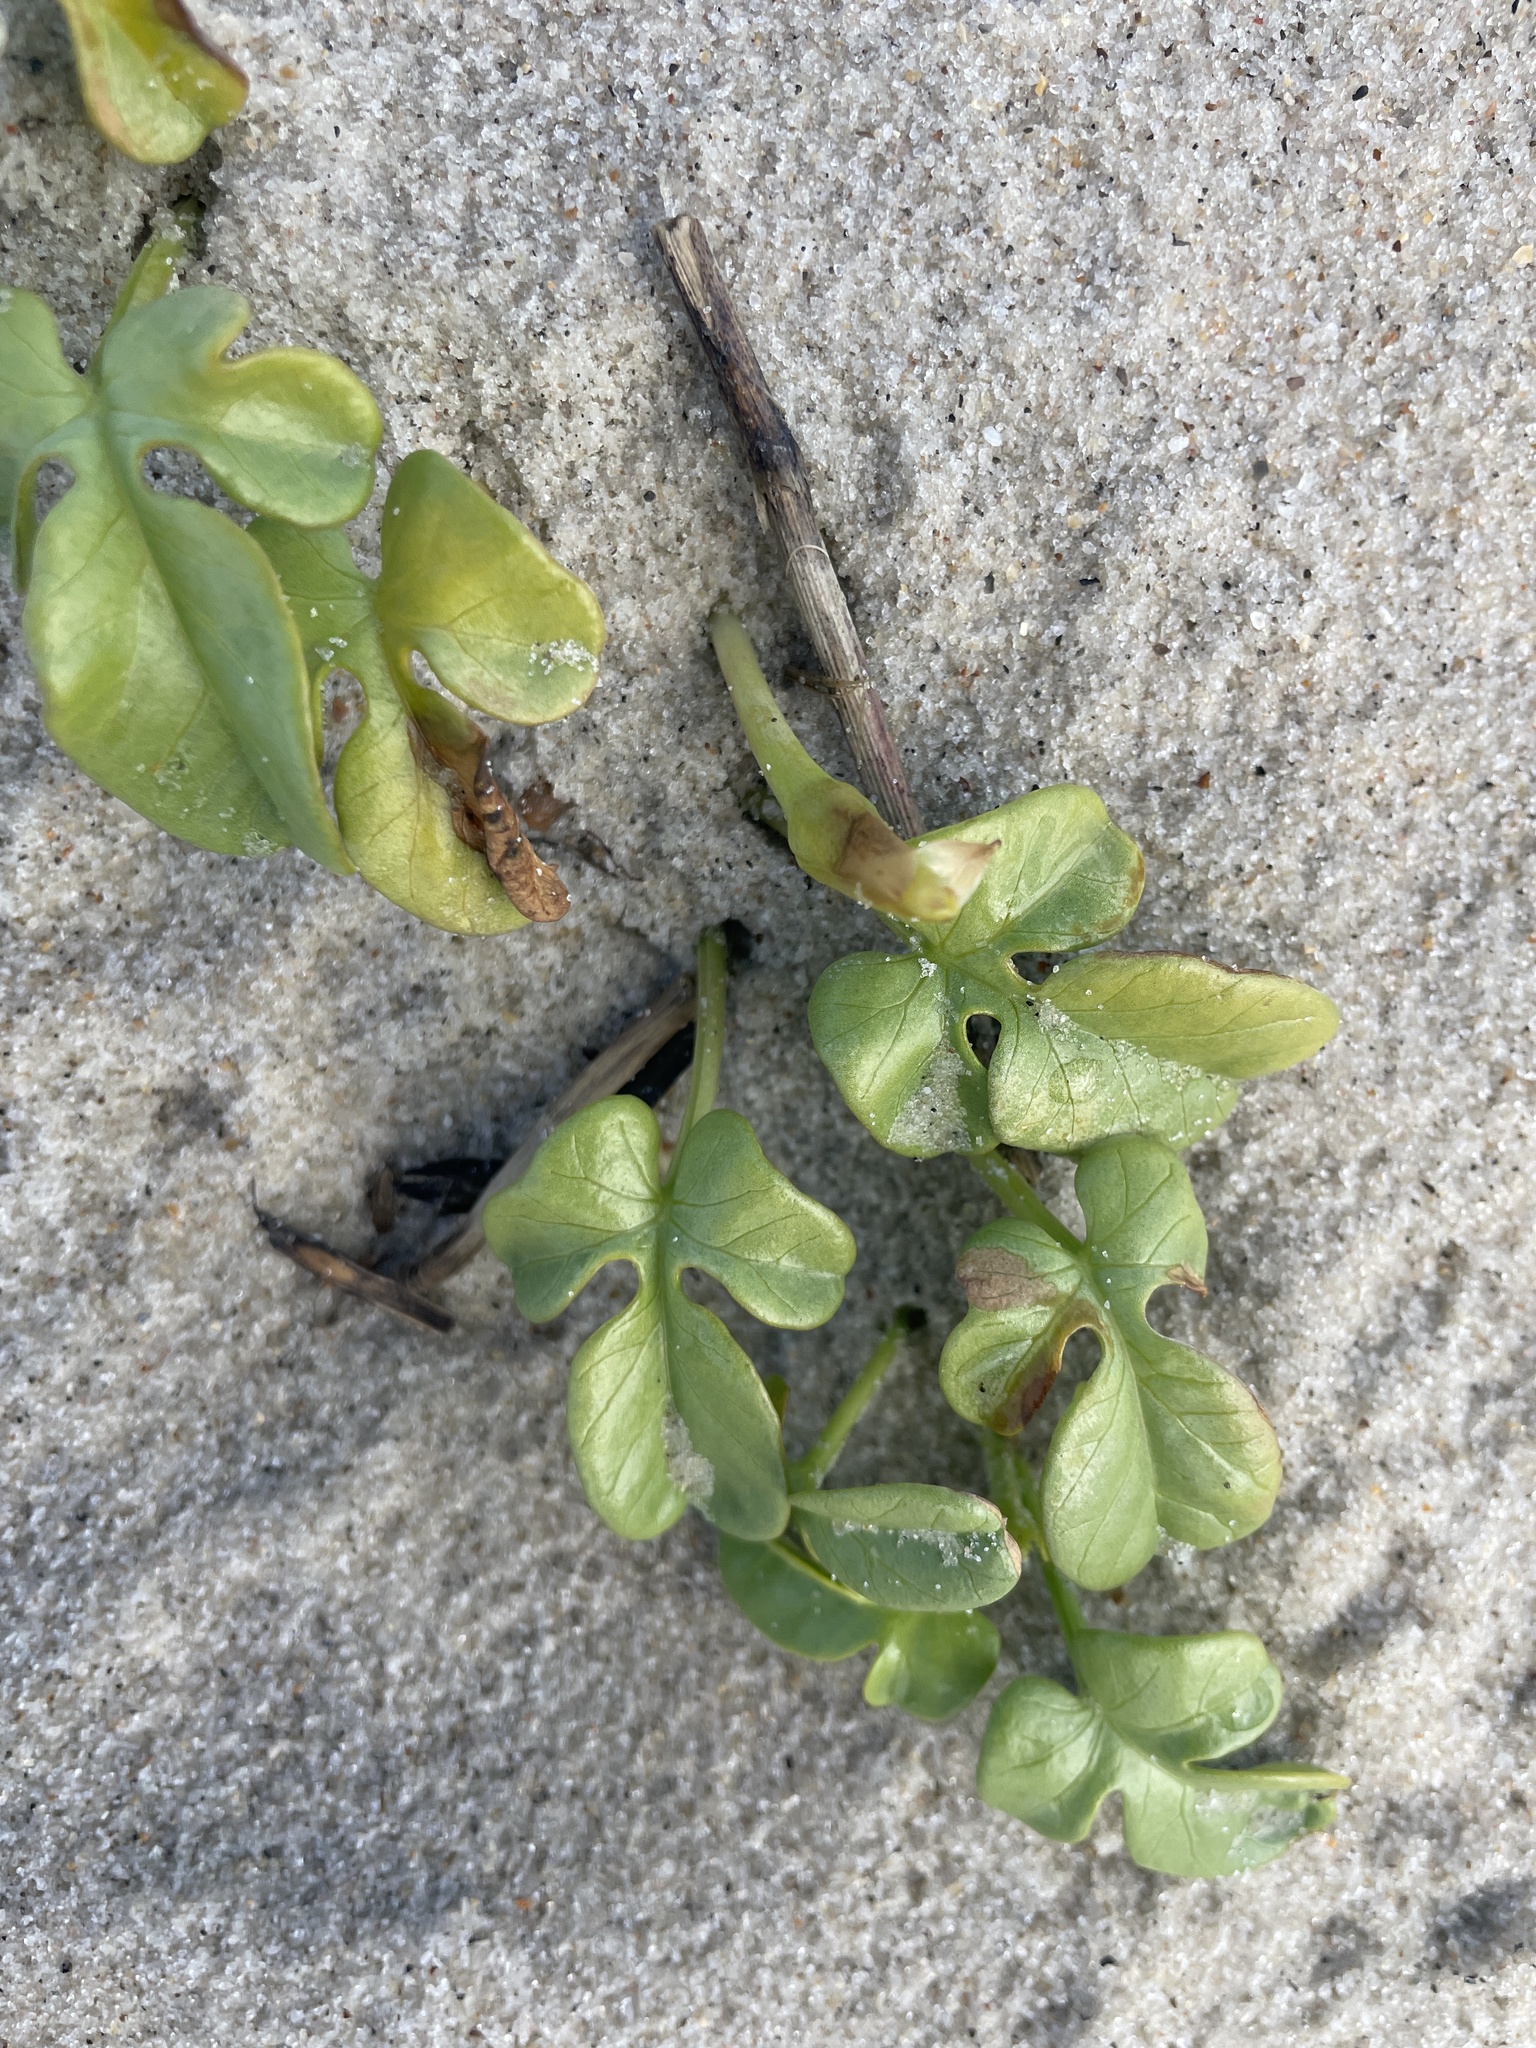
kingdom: Plantae
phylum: Tracheophyta
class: Magnoliopsida
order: Solanales
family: Convolvulaceae
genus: Ipomoea
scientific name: Ipomoea imperati
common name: Fiddle-leaf morning-glory
